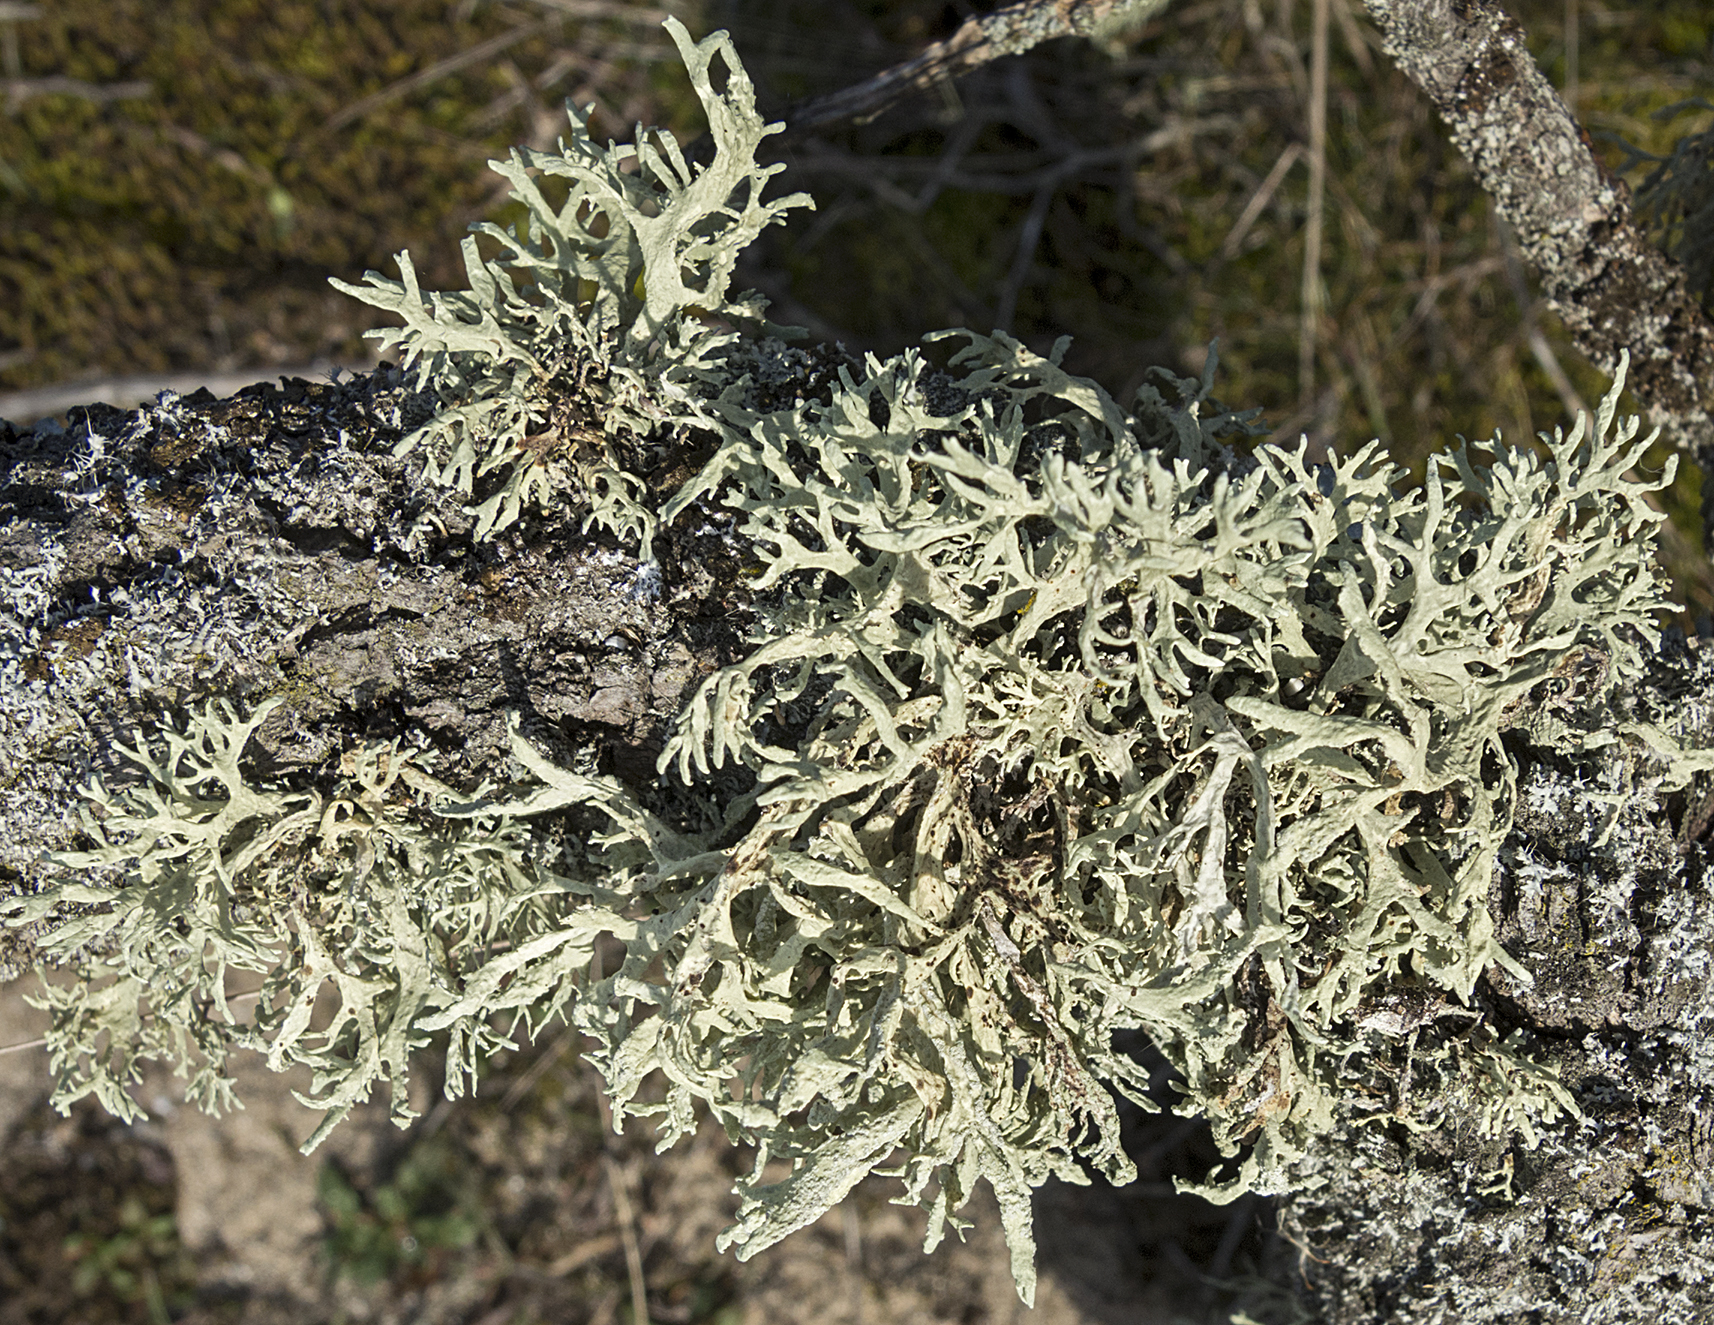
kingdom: Fungi
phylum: Ascomycota
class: Lecanoromycetes
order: Lecanorales
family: Parmeliaceae
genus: Evernia
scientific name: Evernia prunastri
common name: Oak moss
